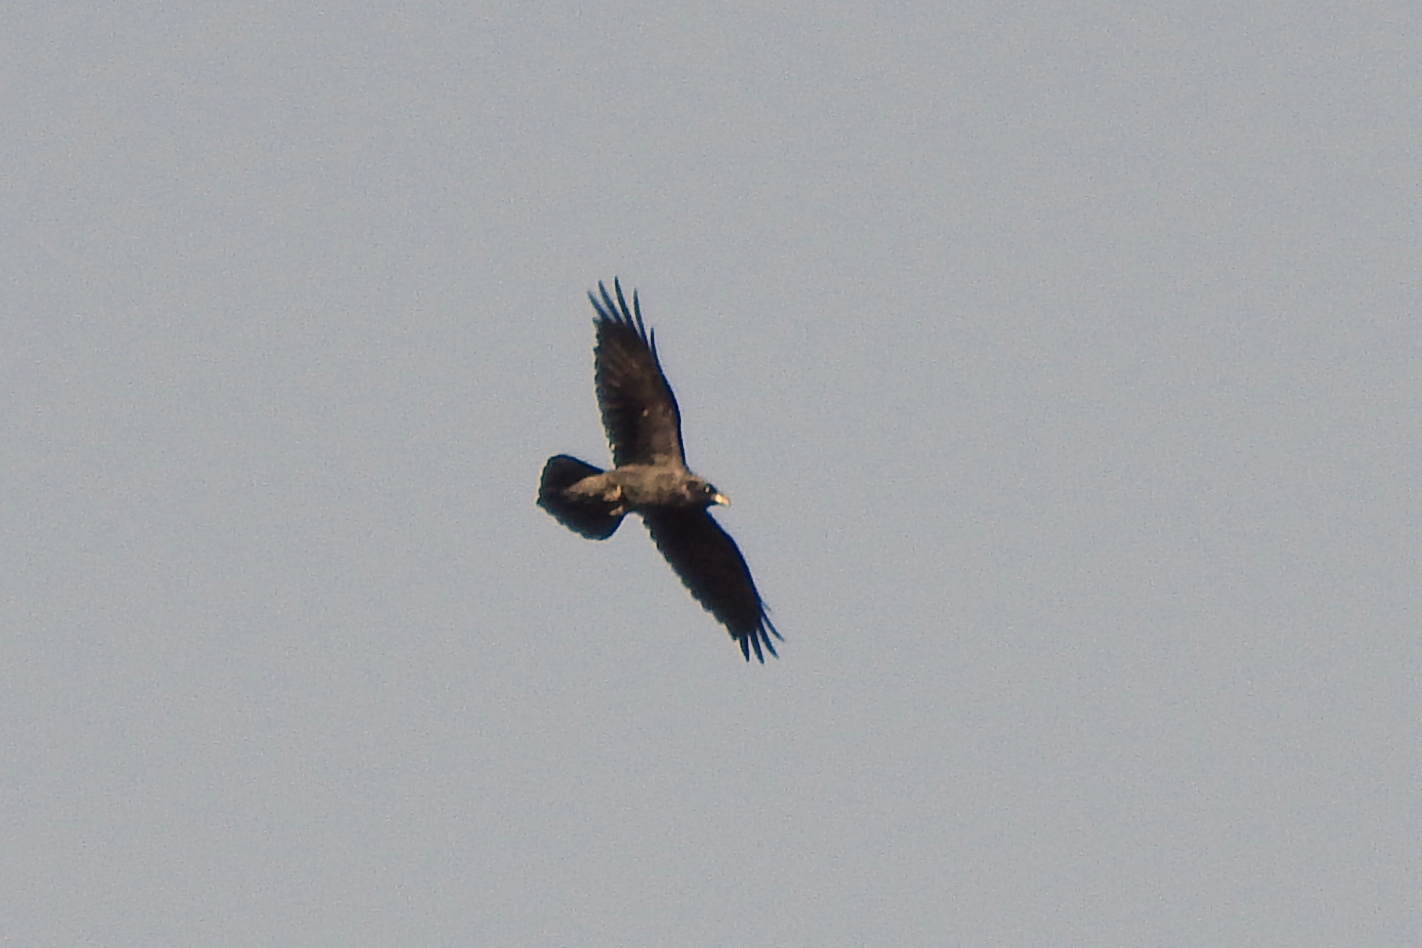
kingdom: Animalia
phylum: Chordata
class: Aves
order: Passeriformes
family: Corvidae
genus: Corvus
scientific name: Corvus corax
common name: Common raven
